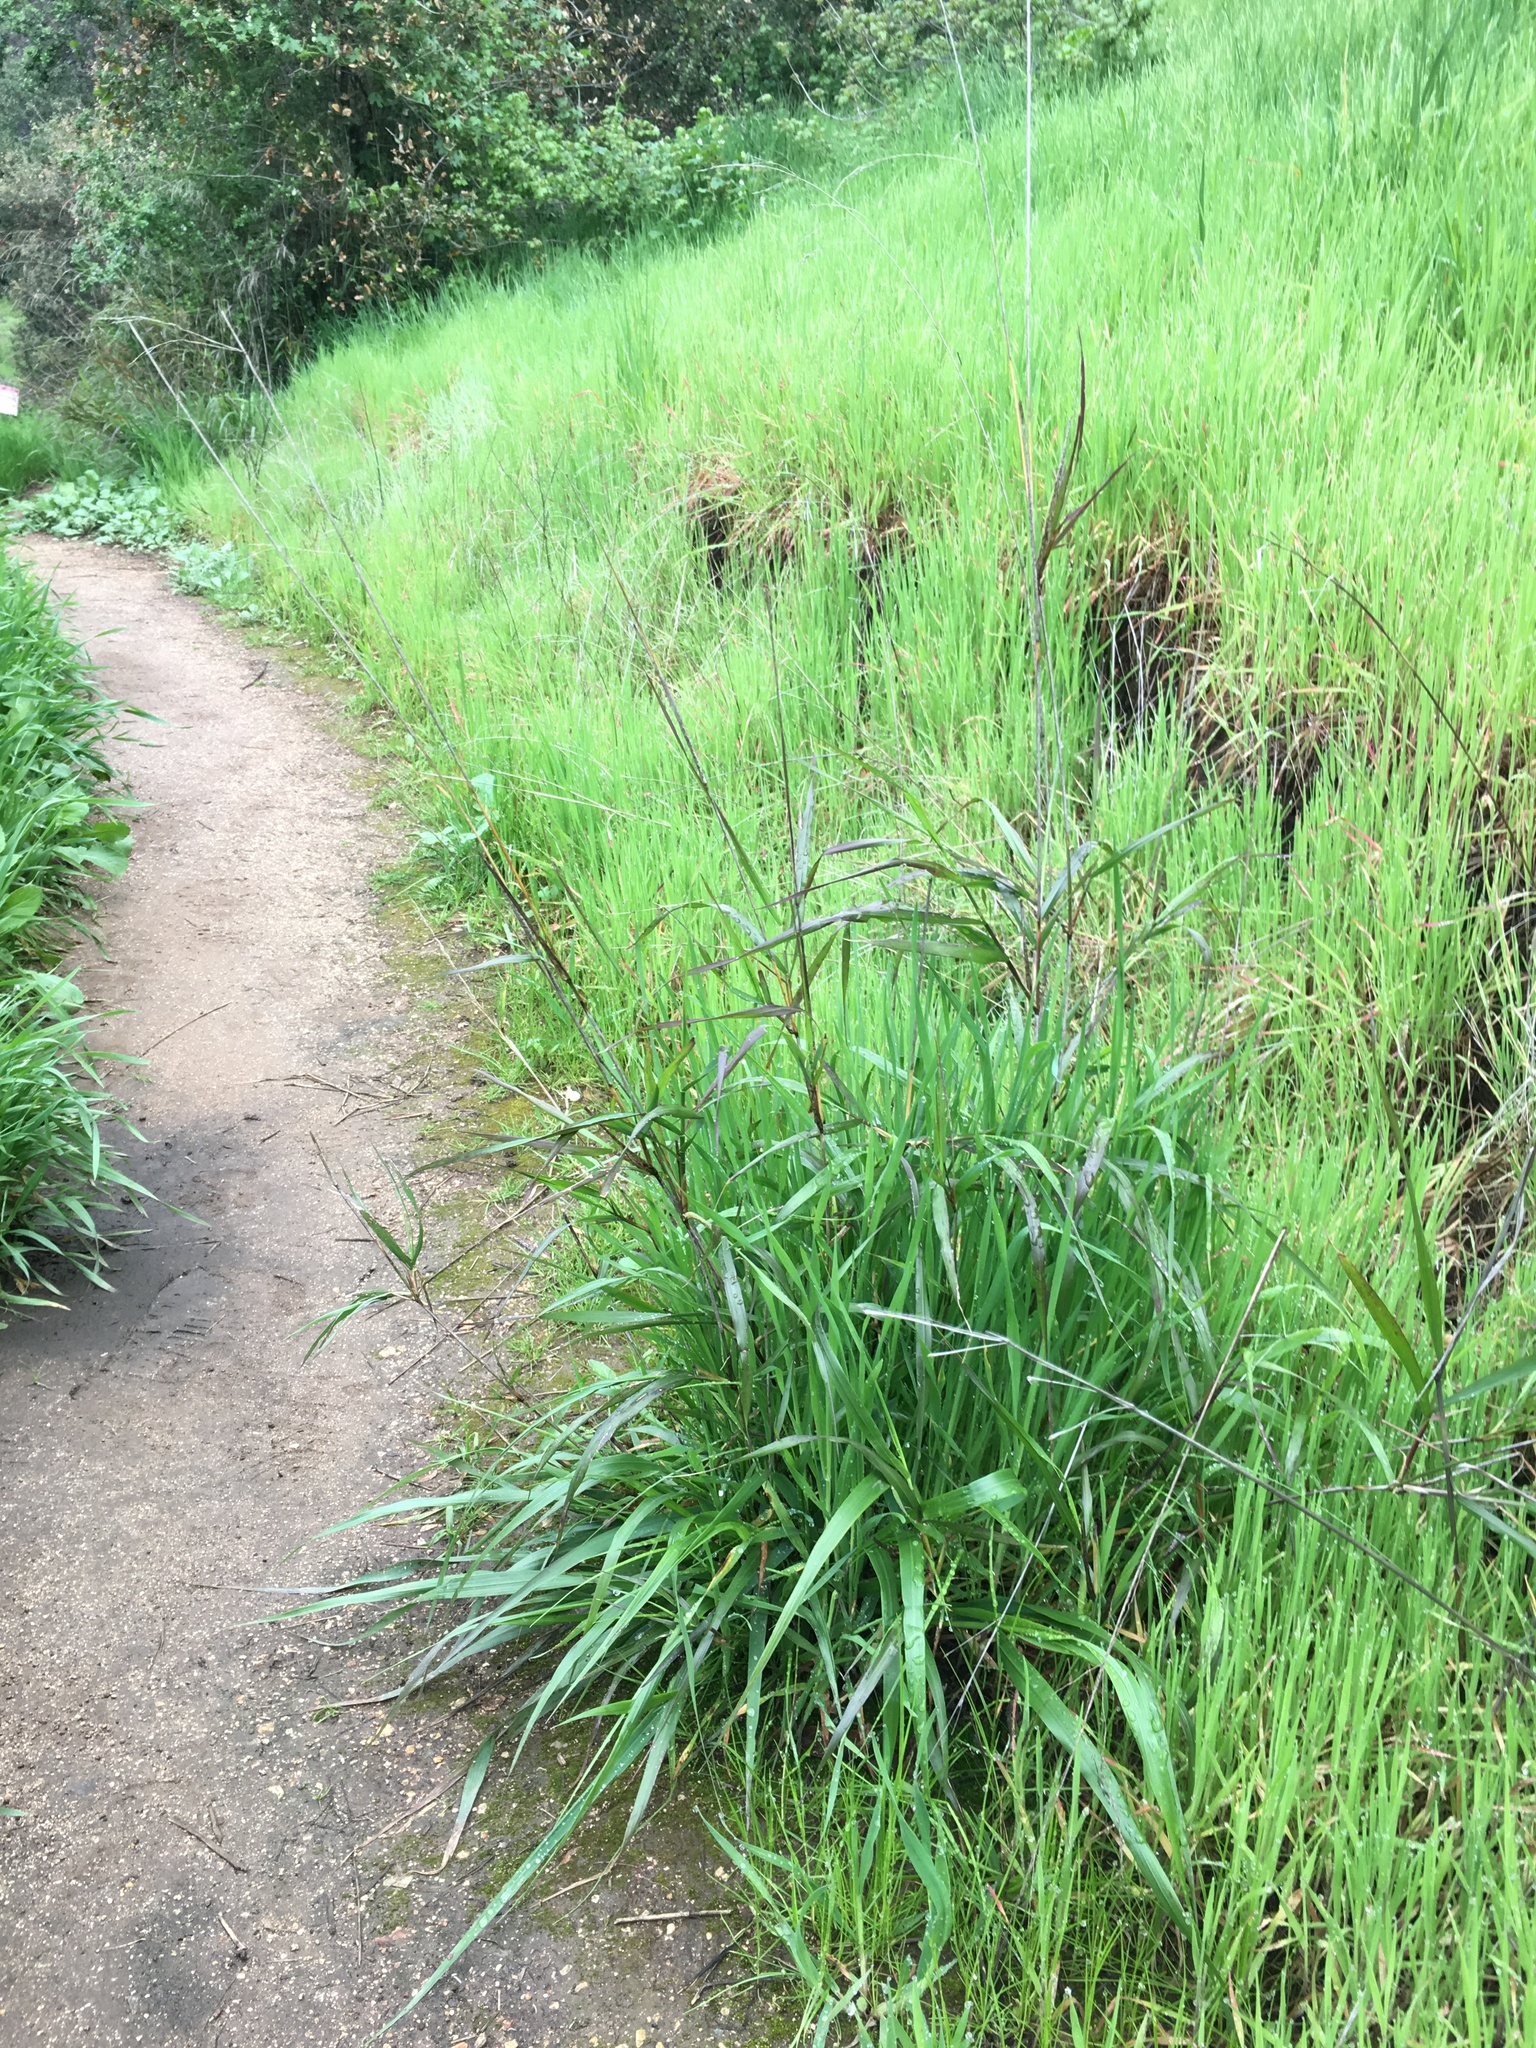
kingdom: Plantae
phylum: Tracheophyta
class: Liliopsida
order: Poales
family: Poaceae
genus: Oloptum
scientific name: Oloptum miliaceum
